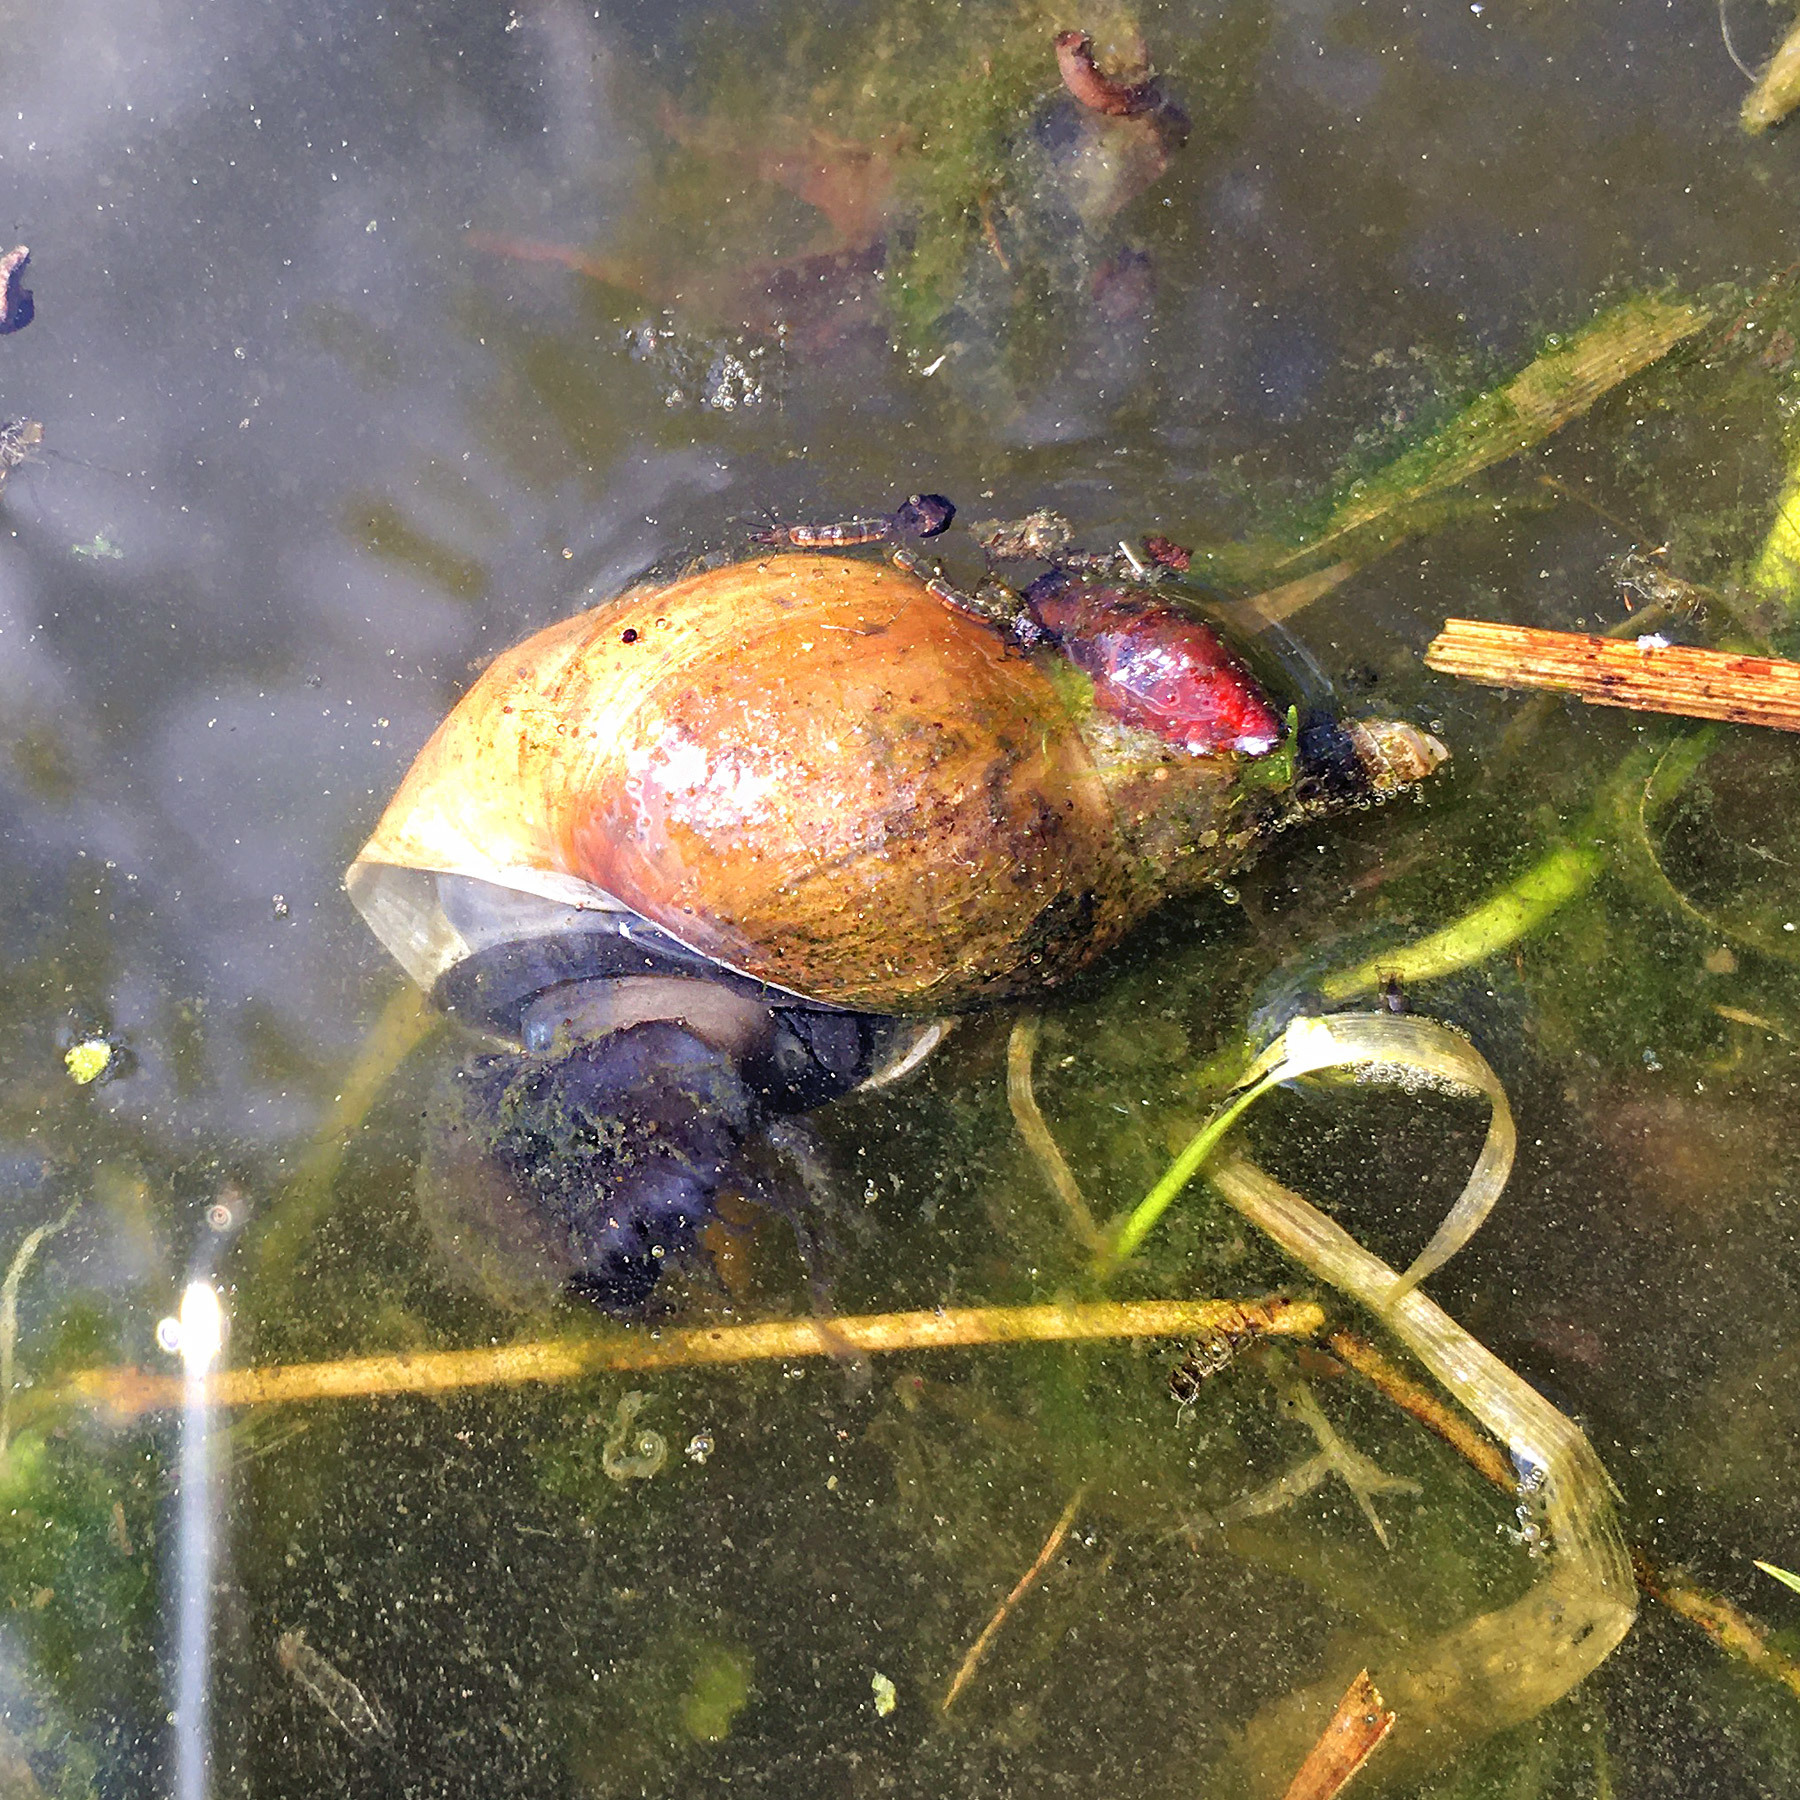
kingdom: Animalia
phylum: Mollusca
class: Gastropoda
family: Lymnaeidae
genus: Lymnaea
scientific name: Lymnaea stagnalis
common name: Great pond snail
